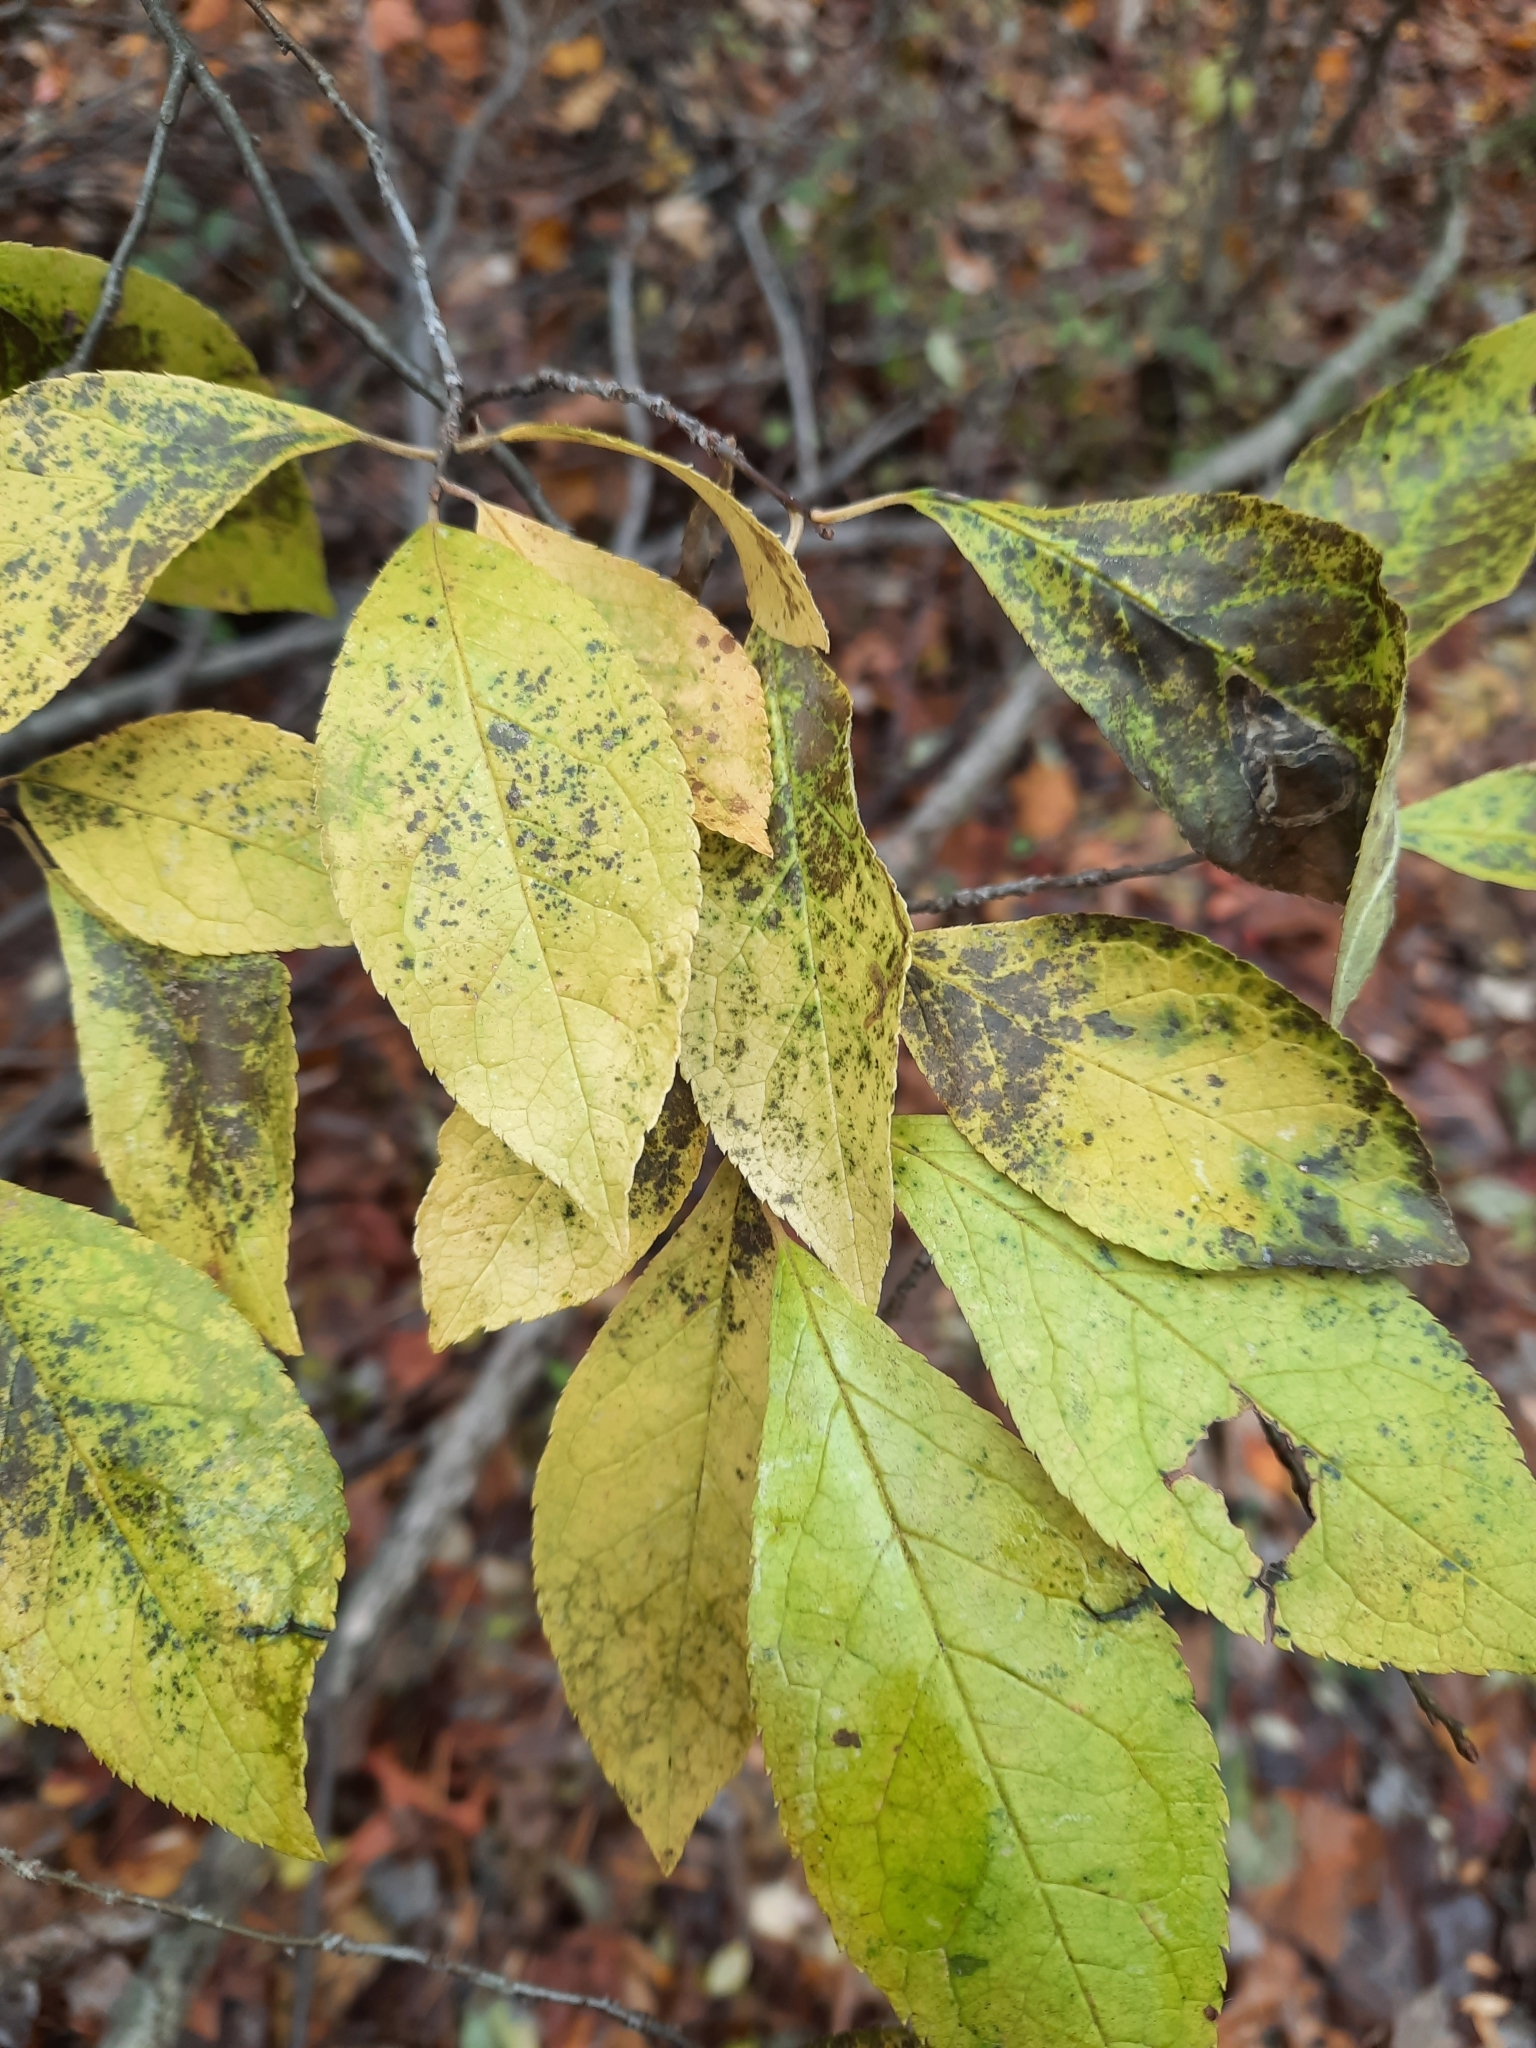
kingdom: Plantae
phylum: Tracheophyta
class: Magnoliopsida
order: Aquifoliales
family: Aquifoliaceae
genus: Ilex
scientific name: Ilex verticillata
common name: Virginia winterberry
